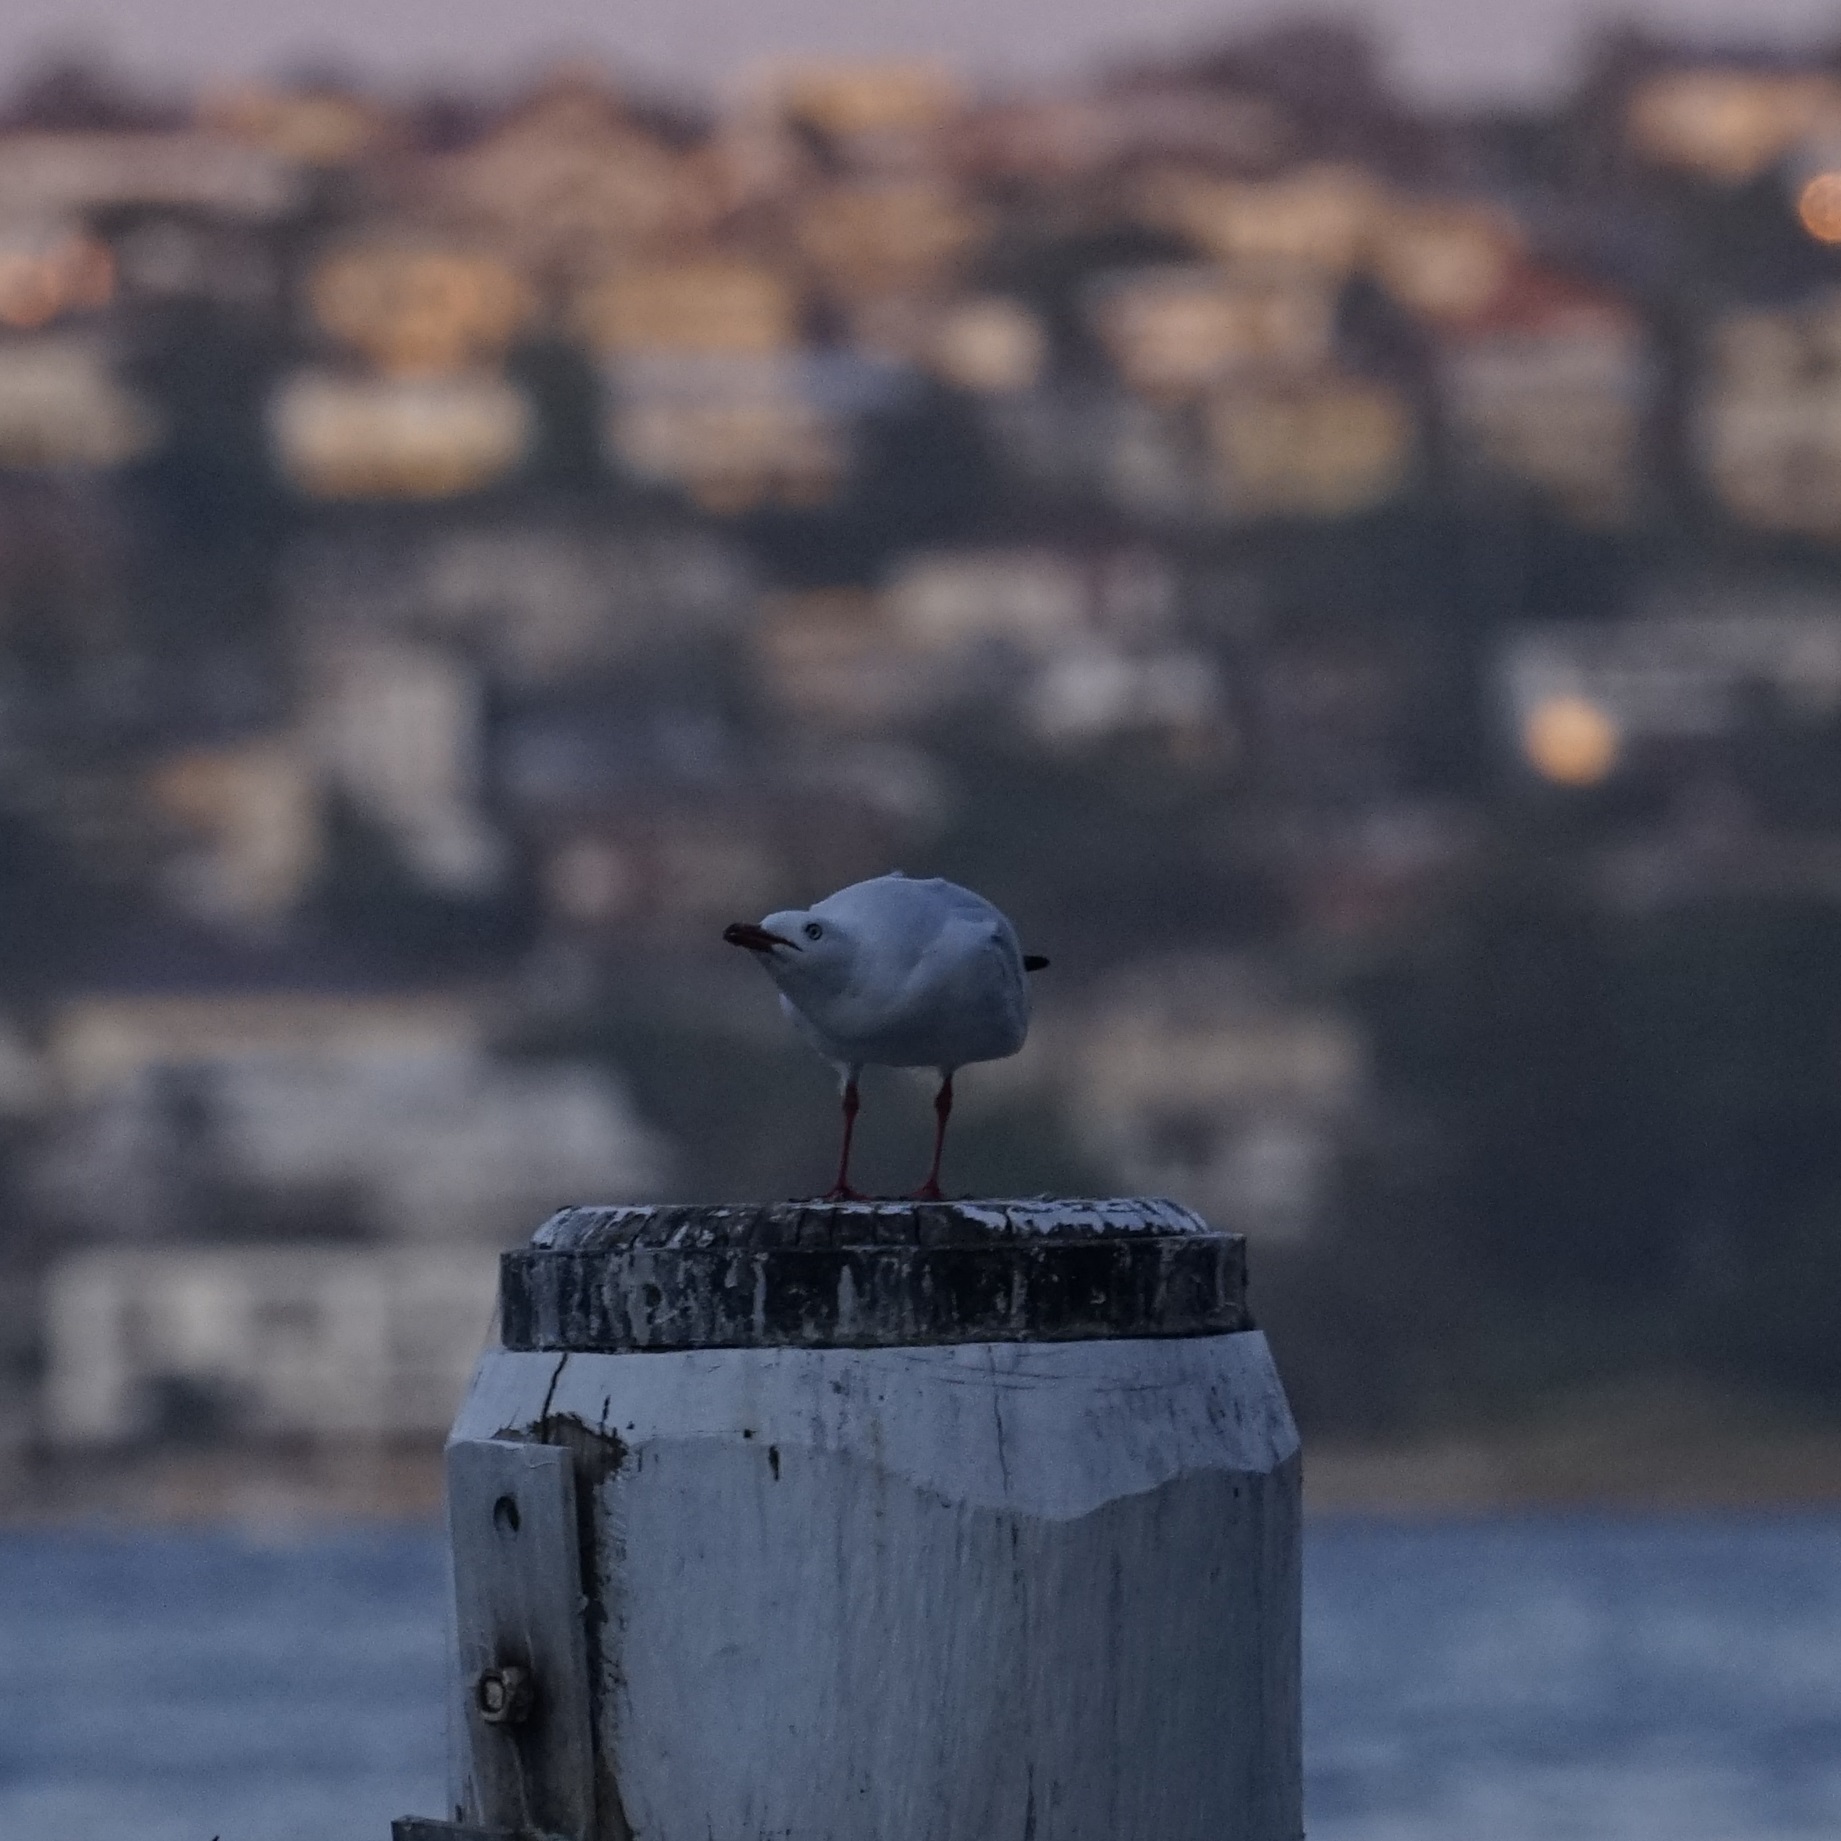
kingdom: Animalia
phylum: Chordata
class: Aves
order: Charadriiformes
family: Laridae
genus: Chroicocephalus
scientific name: Chroicocephalus novaehollandiae
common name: Silver gull
